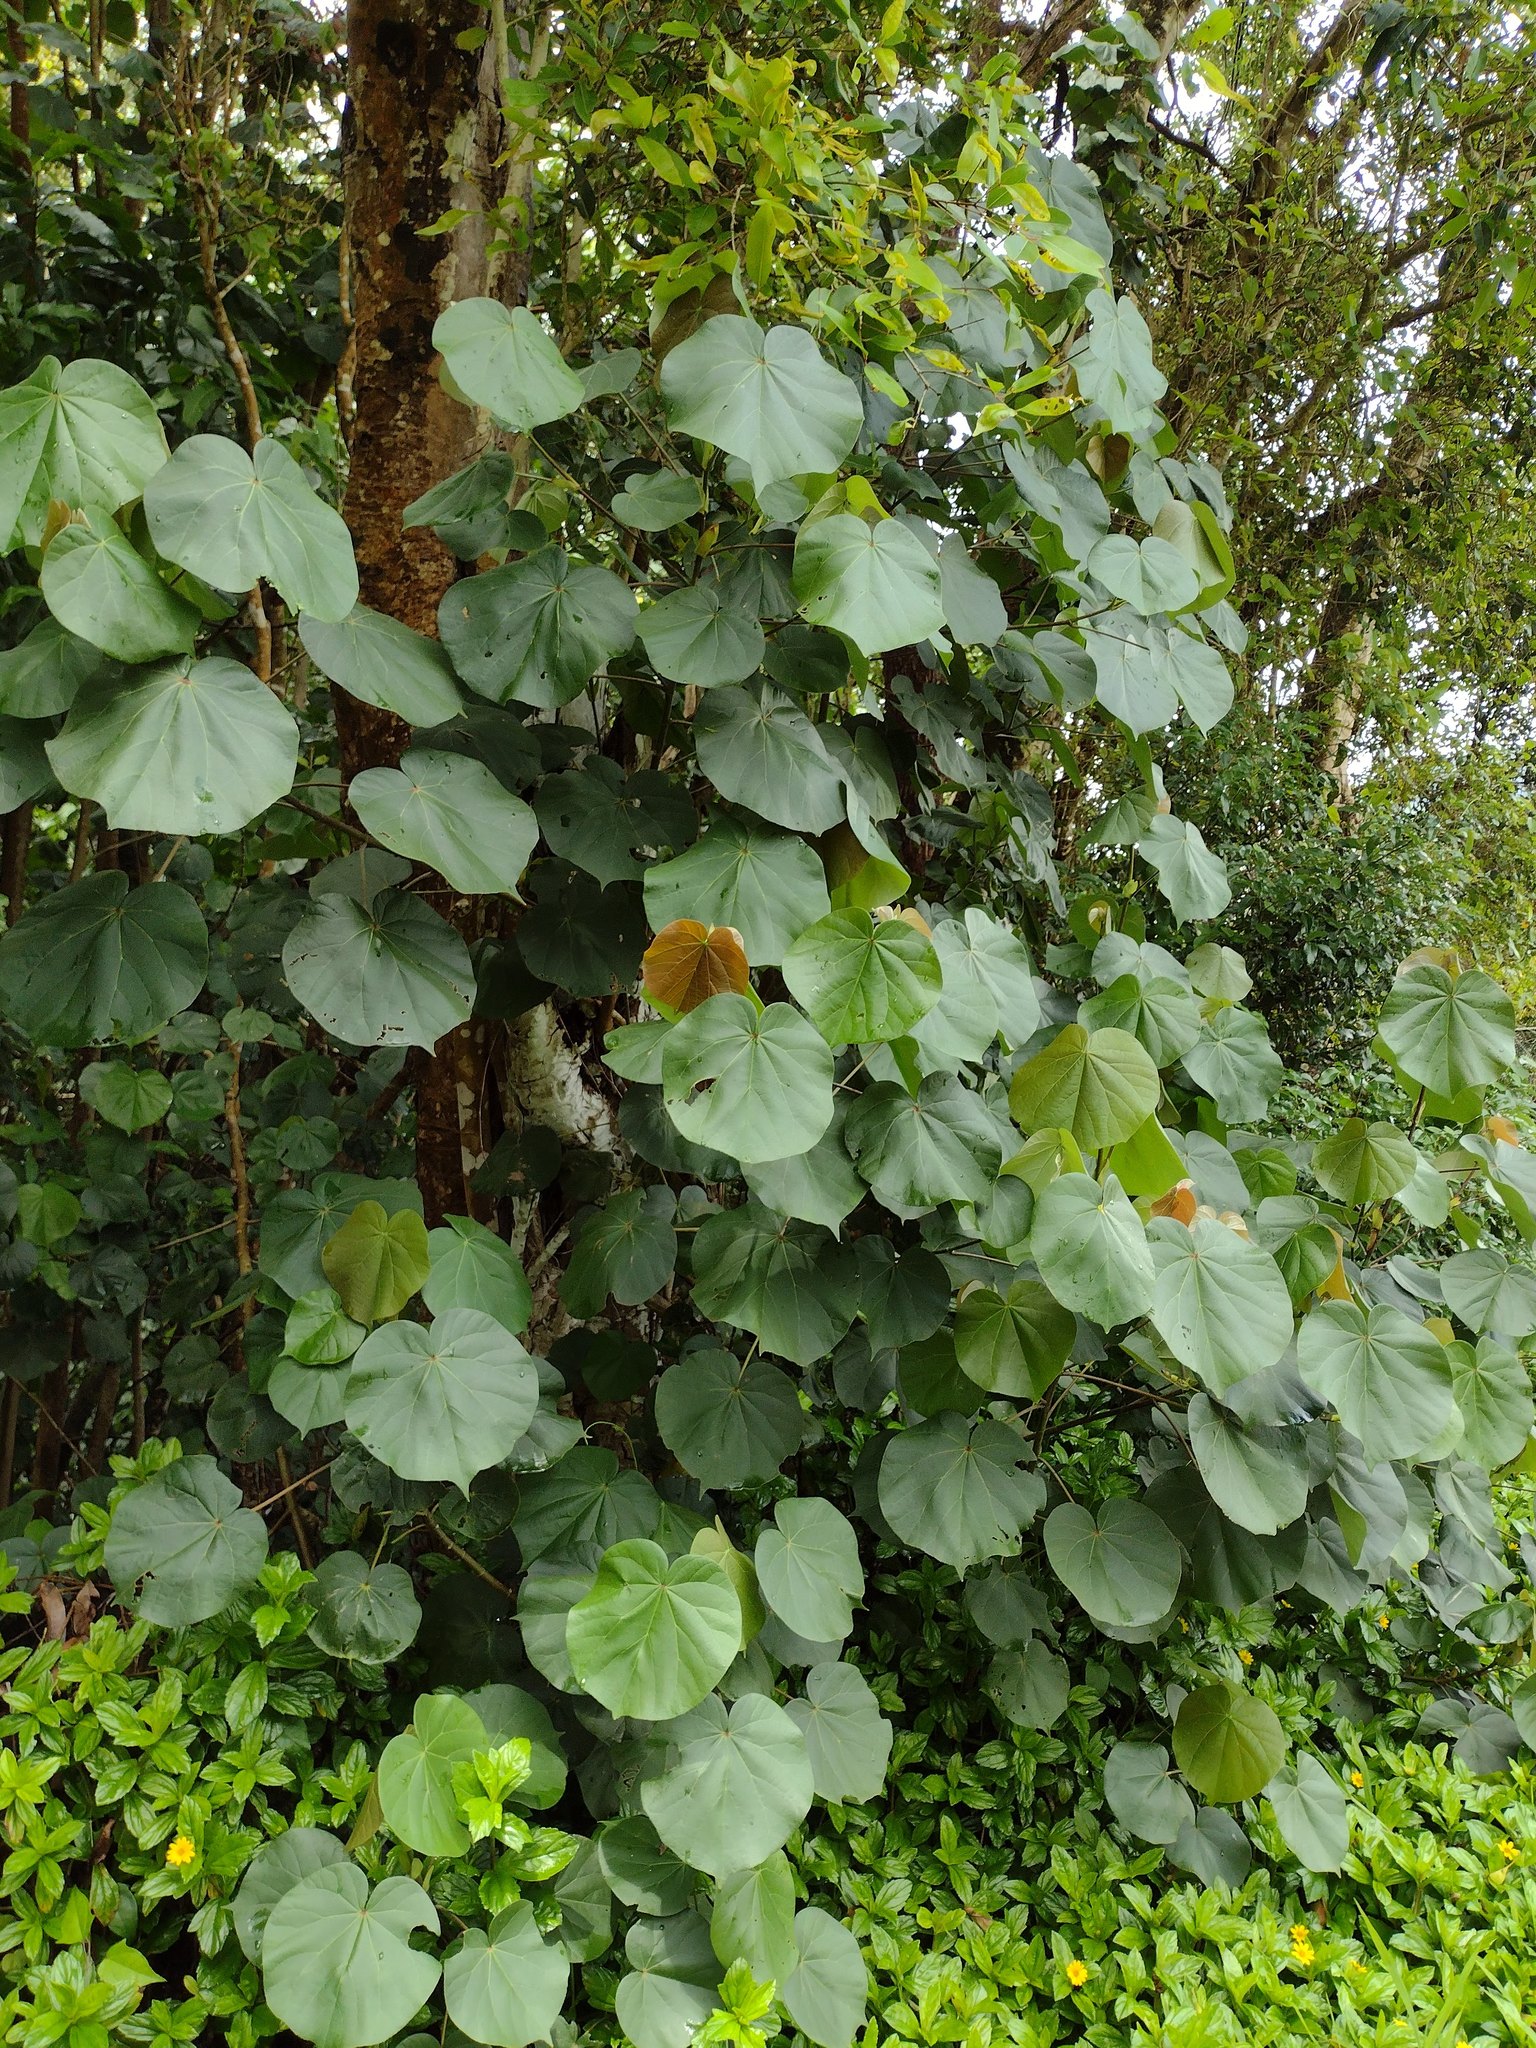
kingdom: Plantae
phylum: Tracheophyta
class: Magnoliopsida
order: Malvales
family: Malvaceae
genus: Talipariti
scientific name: Talipariti tiliaceum
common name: Sea hibiscus
